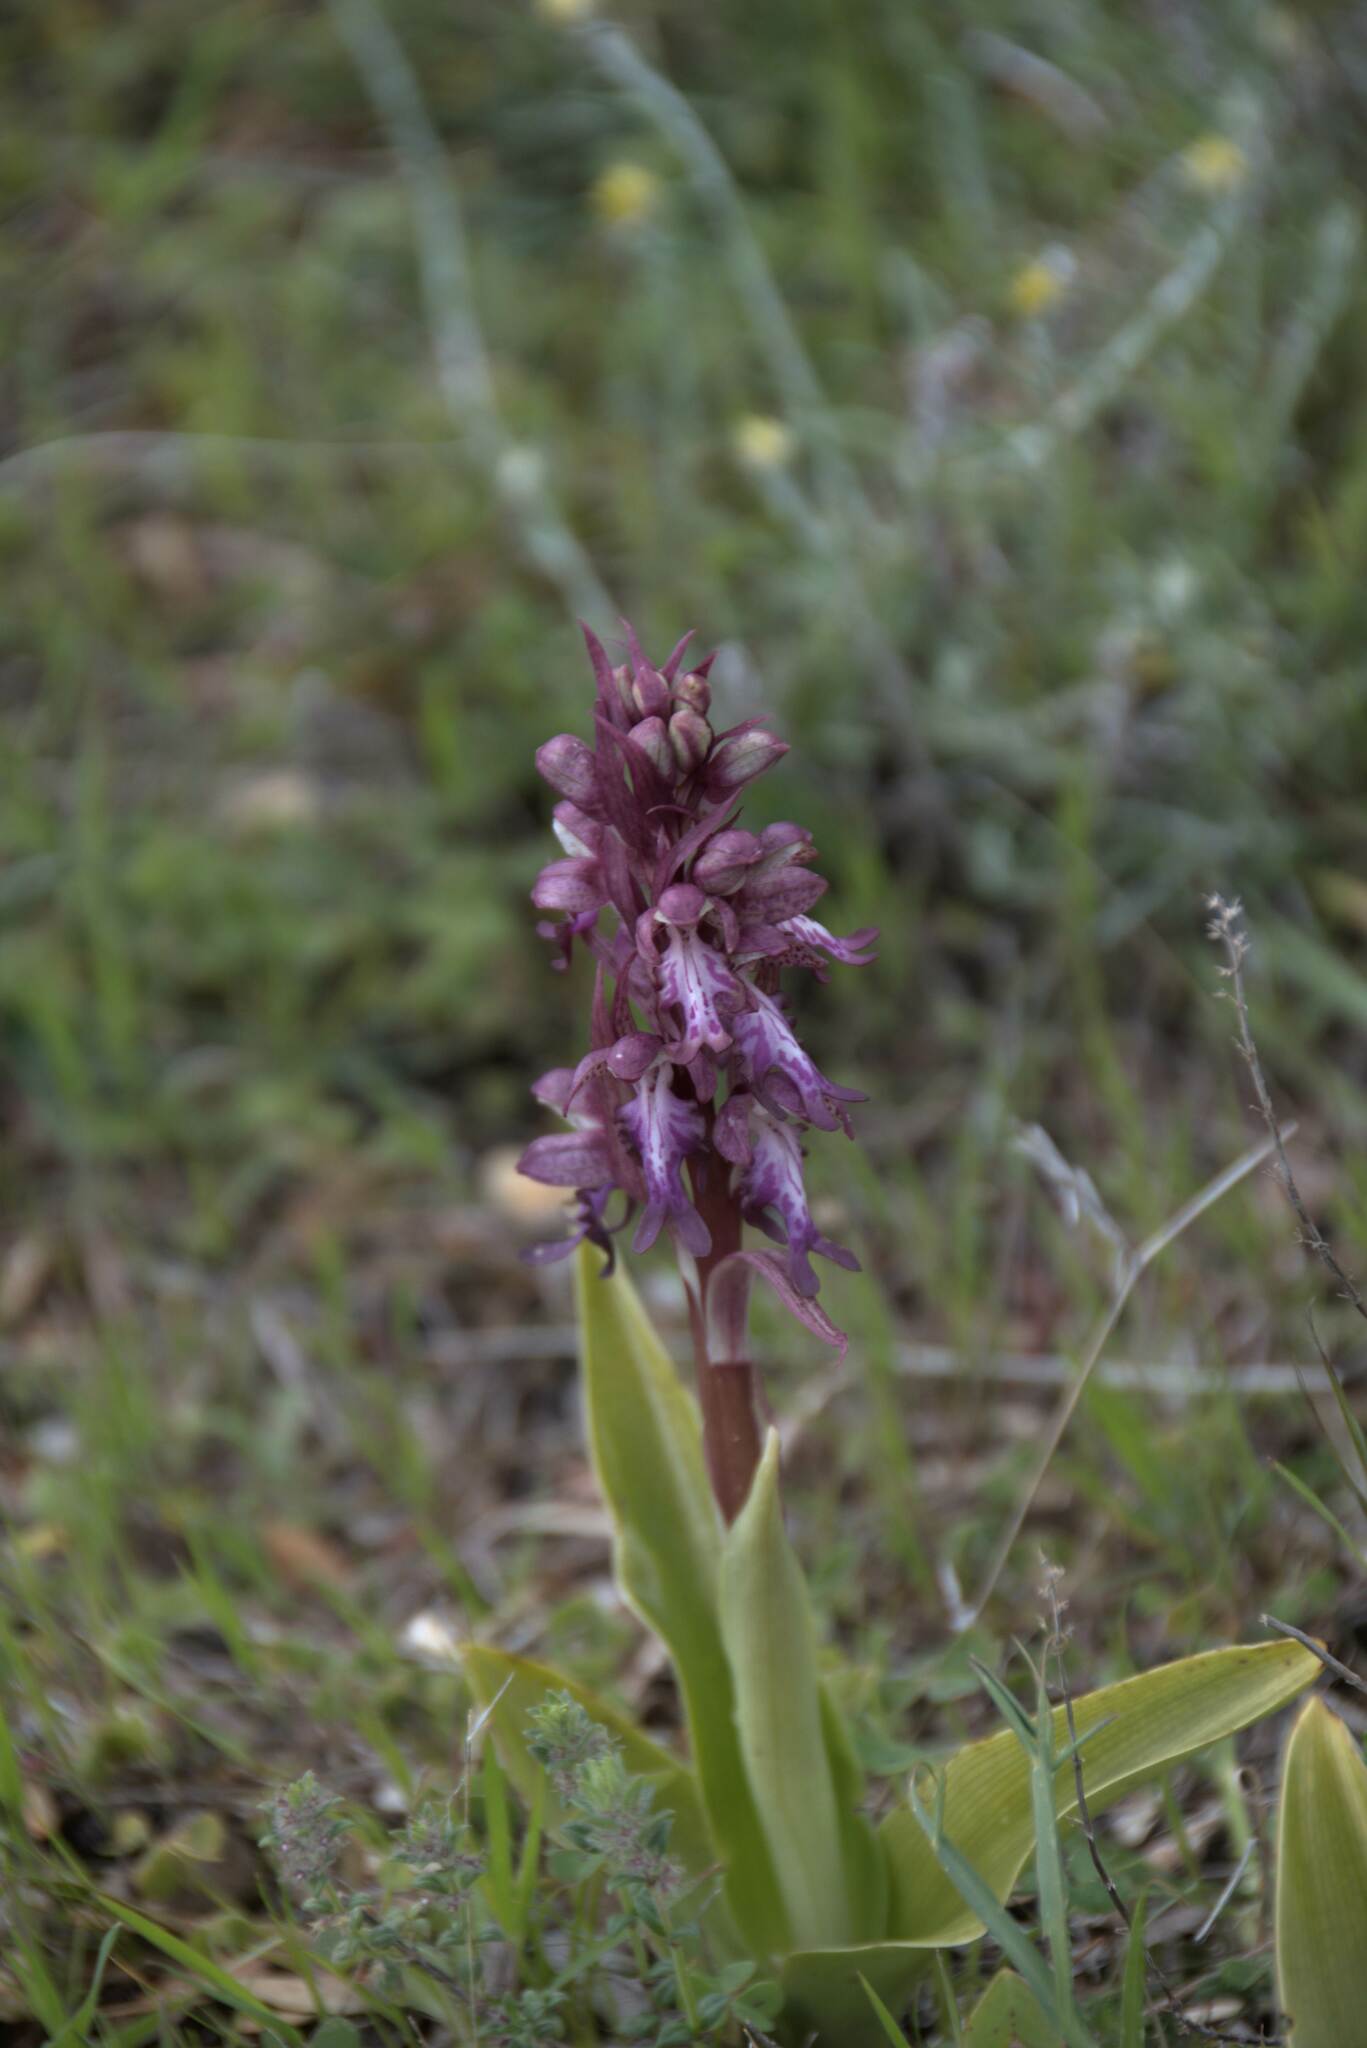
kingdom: Plantae
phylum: Tracheophyta
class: Liliopsida
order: Asparagales
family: Orchidaceae
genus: Himantoglossum
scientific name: Himantoglossum robertianum
